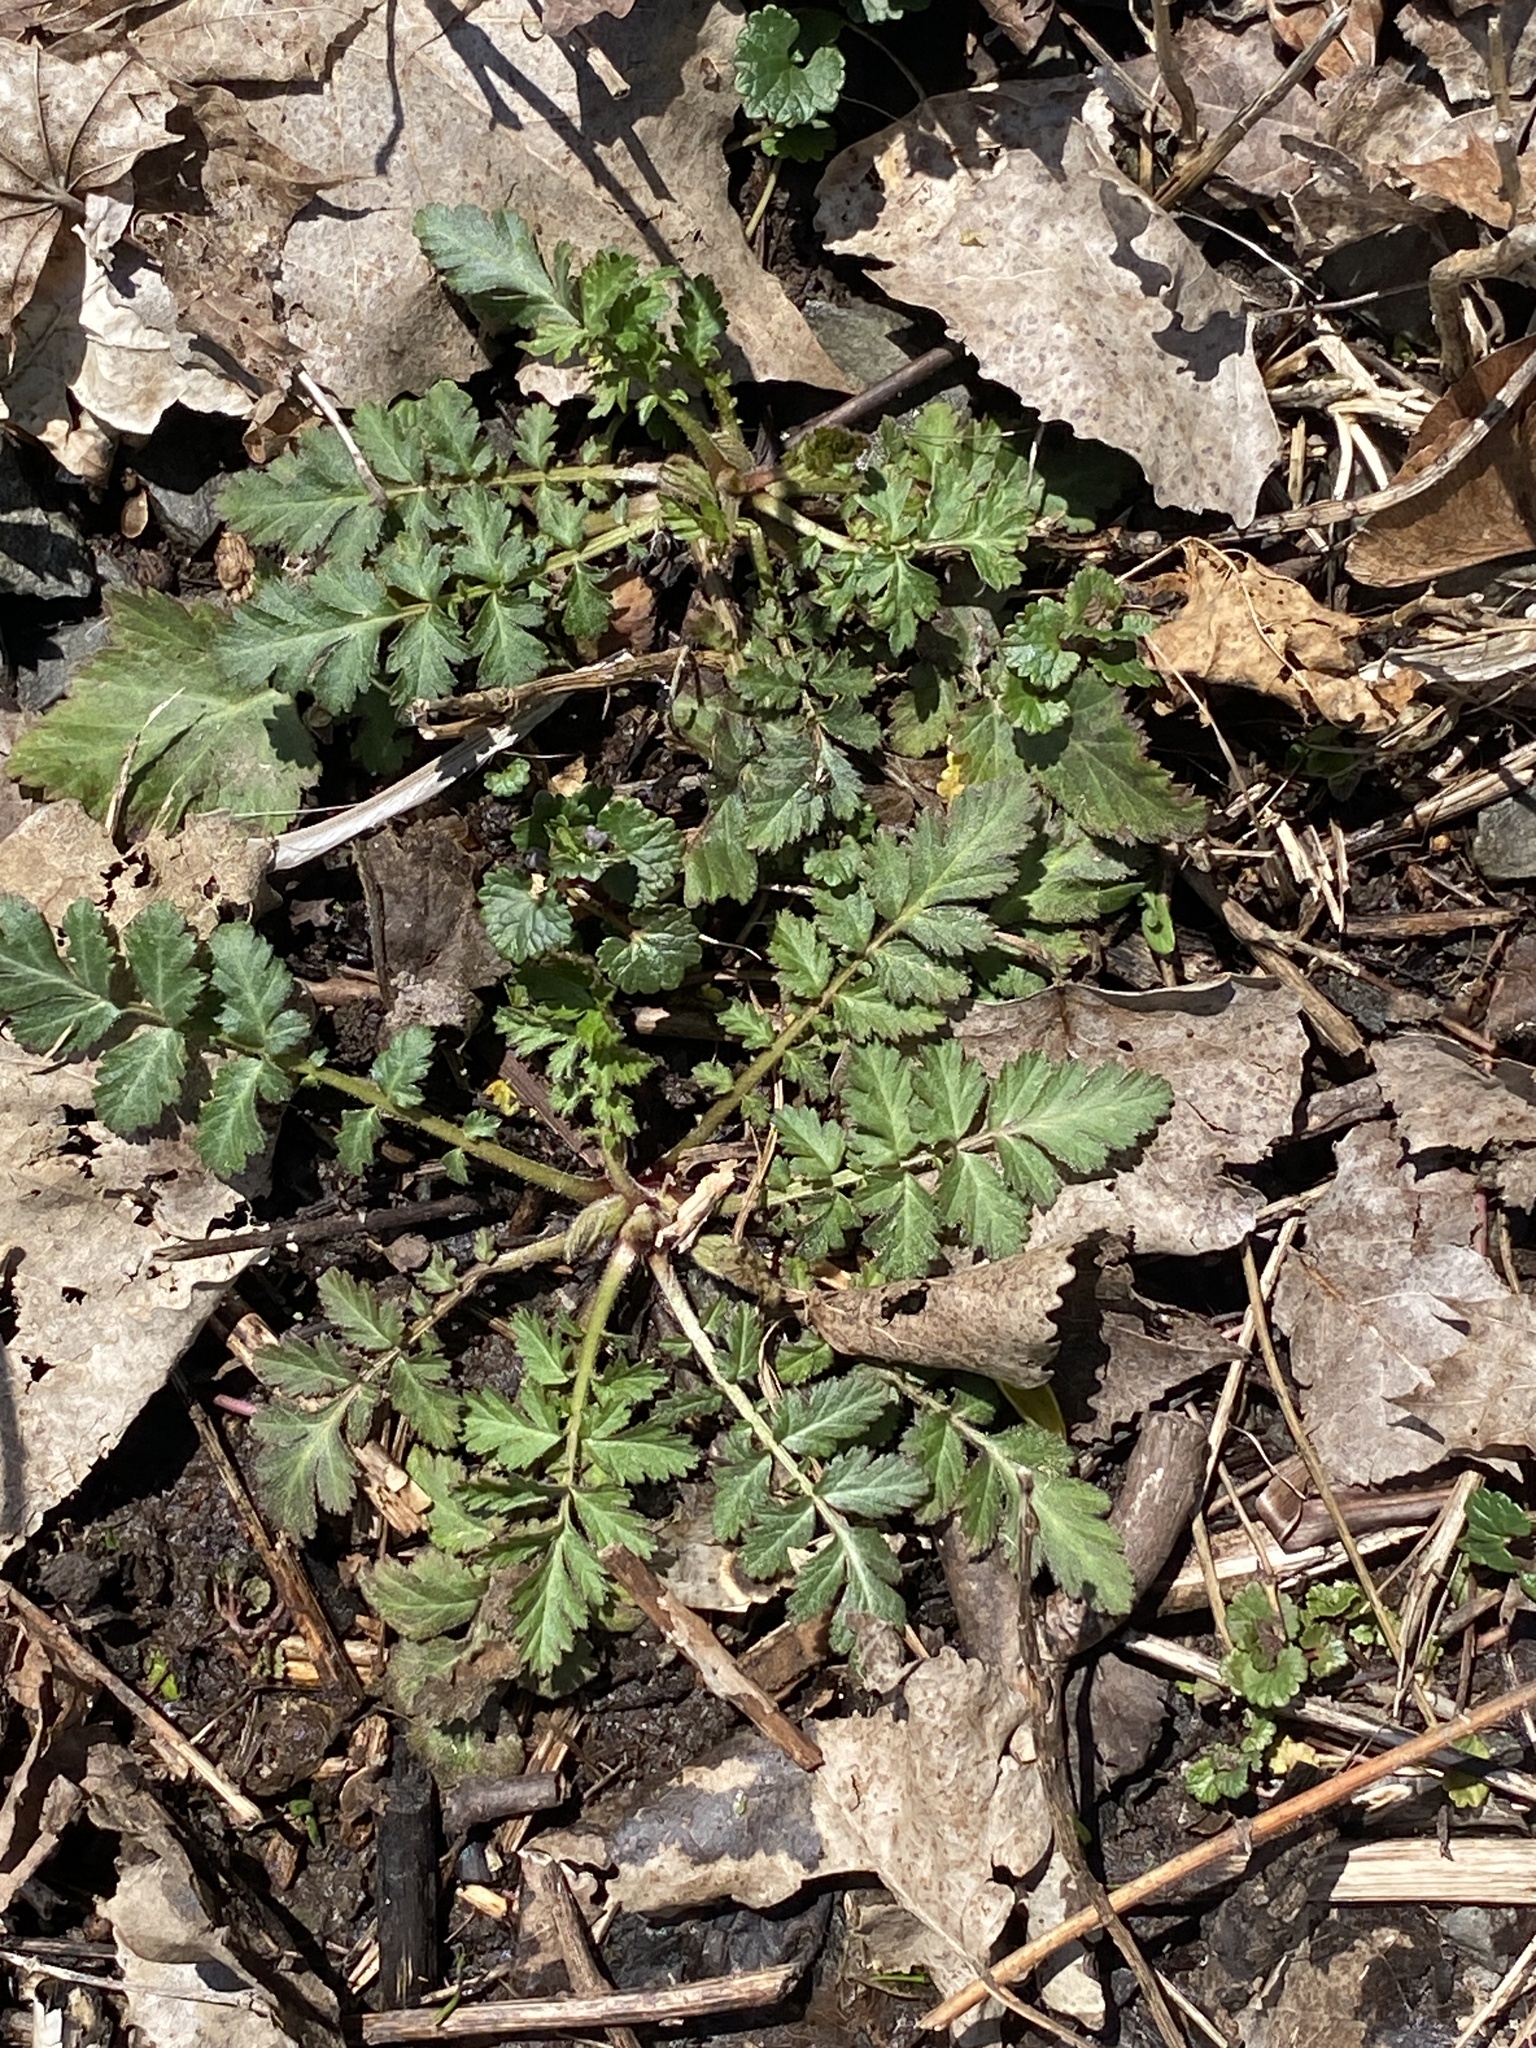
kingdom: Plantae
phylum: Tracheophyta
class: Magnoliopsida
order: Rosales
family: Rosaceae
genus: Geum
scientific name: Geum canadense
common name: White avens
